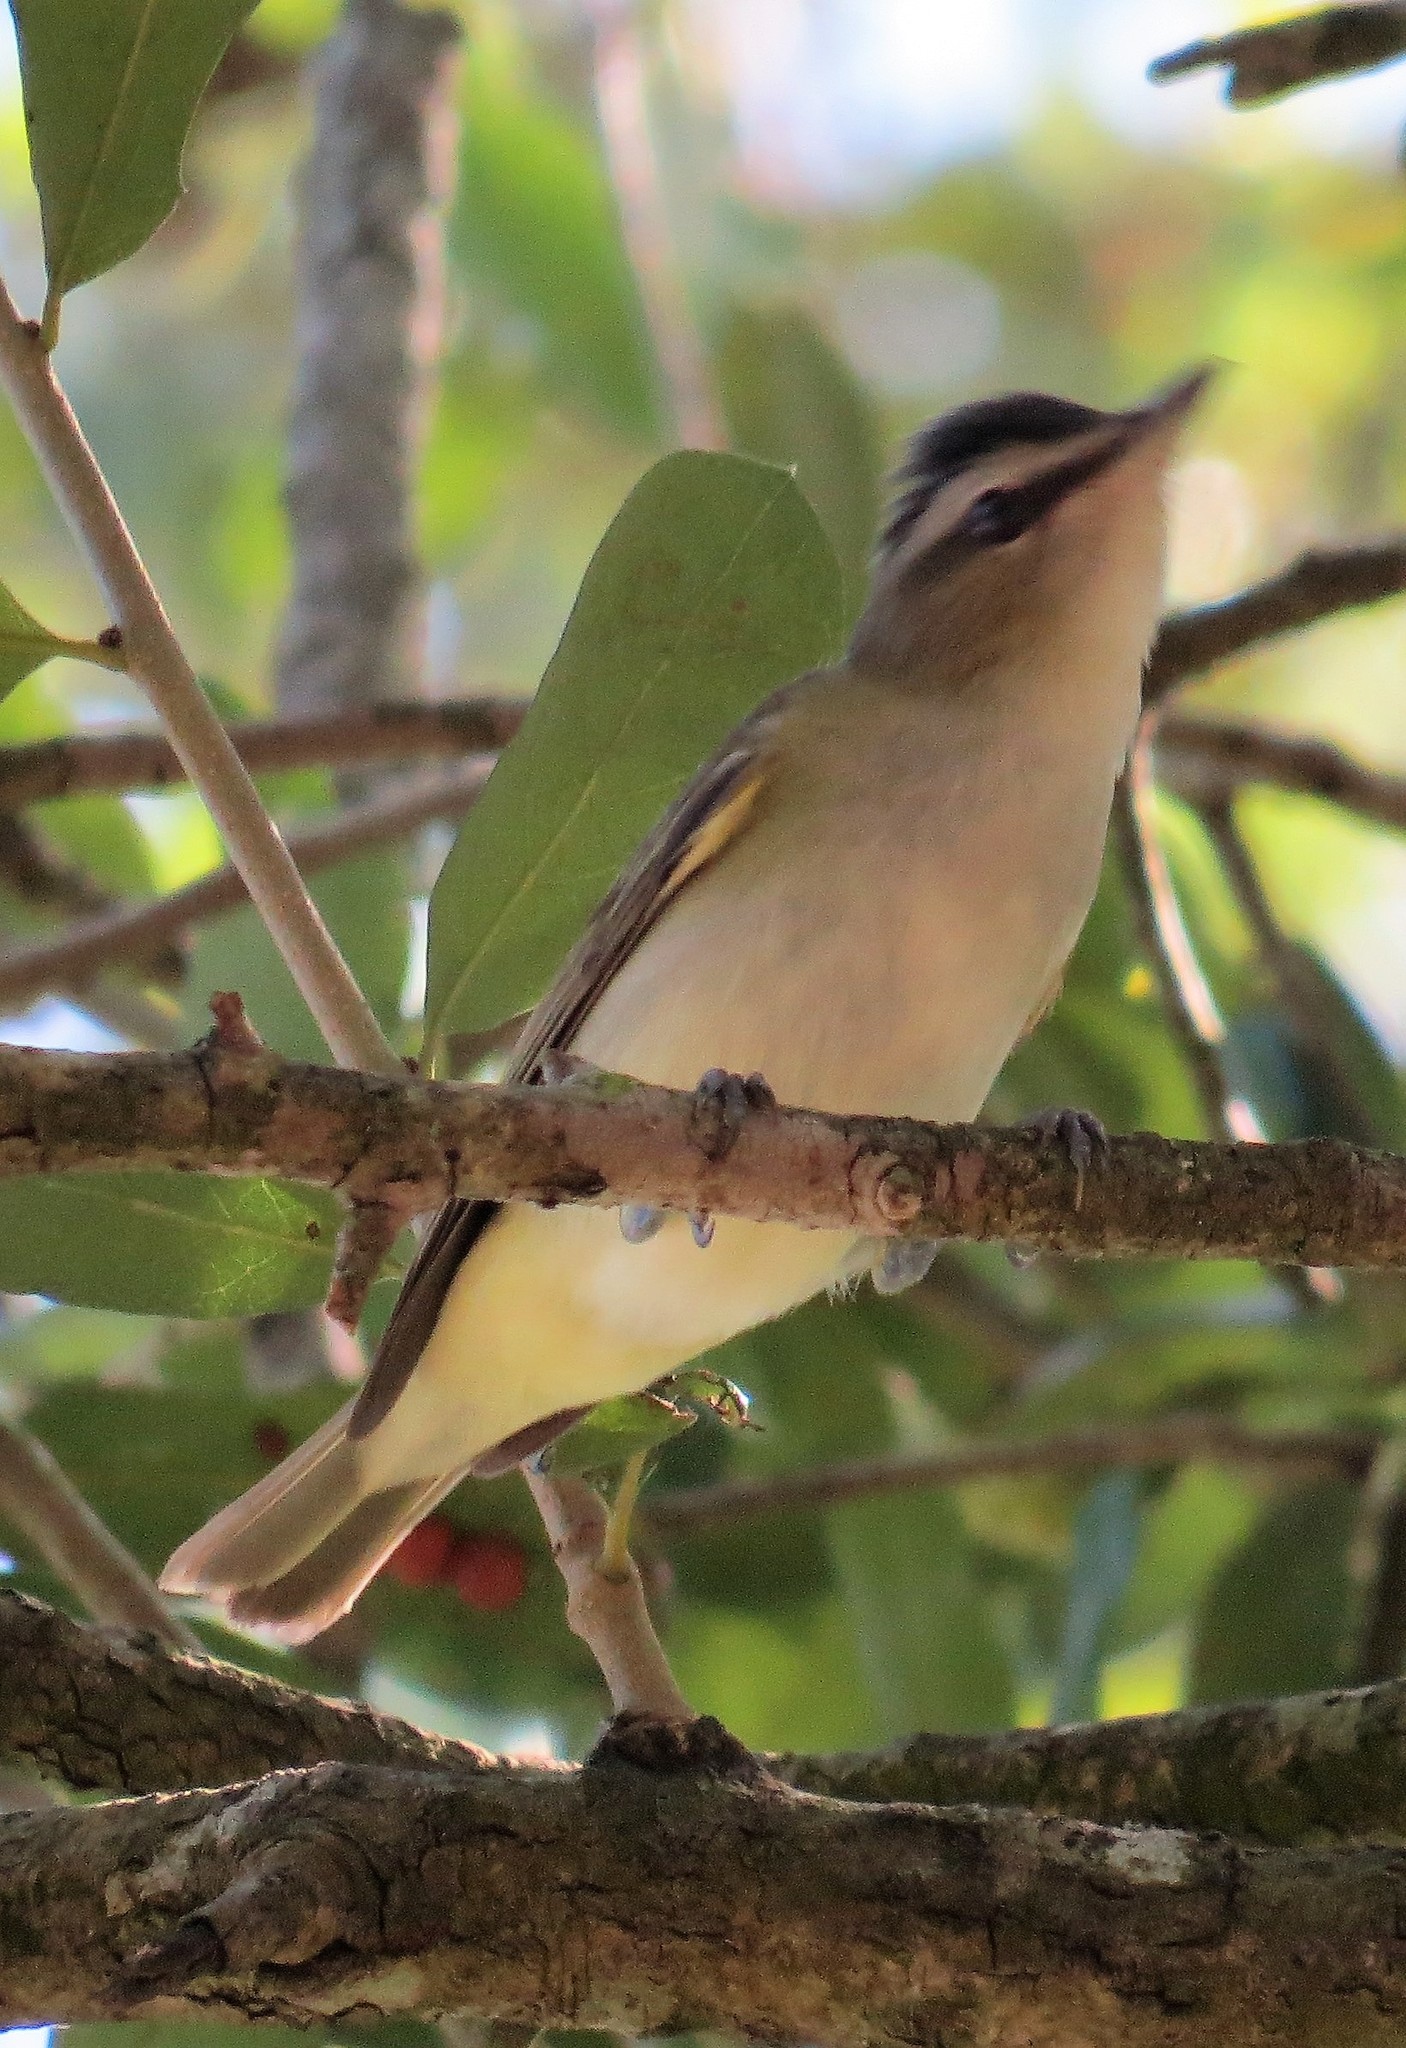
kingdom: Animalia
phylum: Chordata
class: Aves
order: Passeriformes
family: Vireonidae
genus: Vireo
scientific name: Vireo olivaceus
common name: Red-eyed vireo
